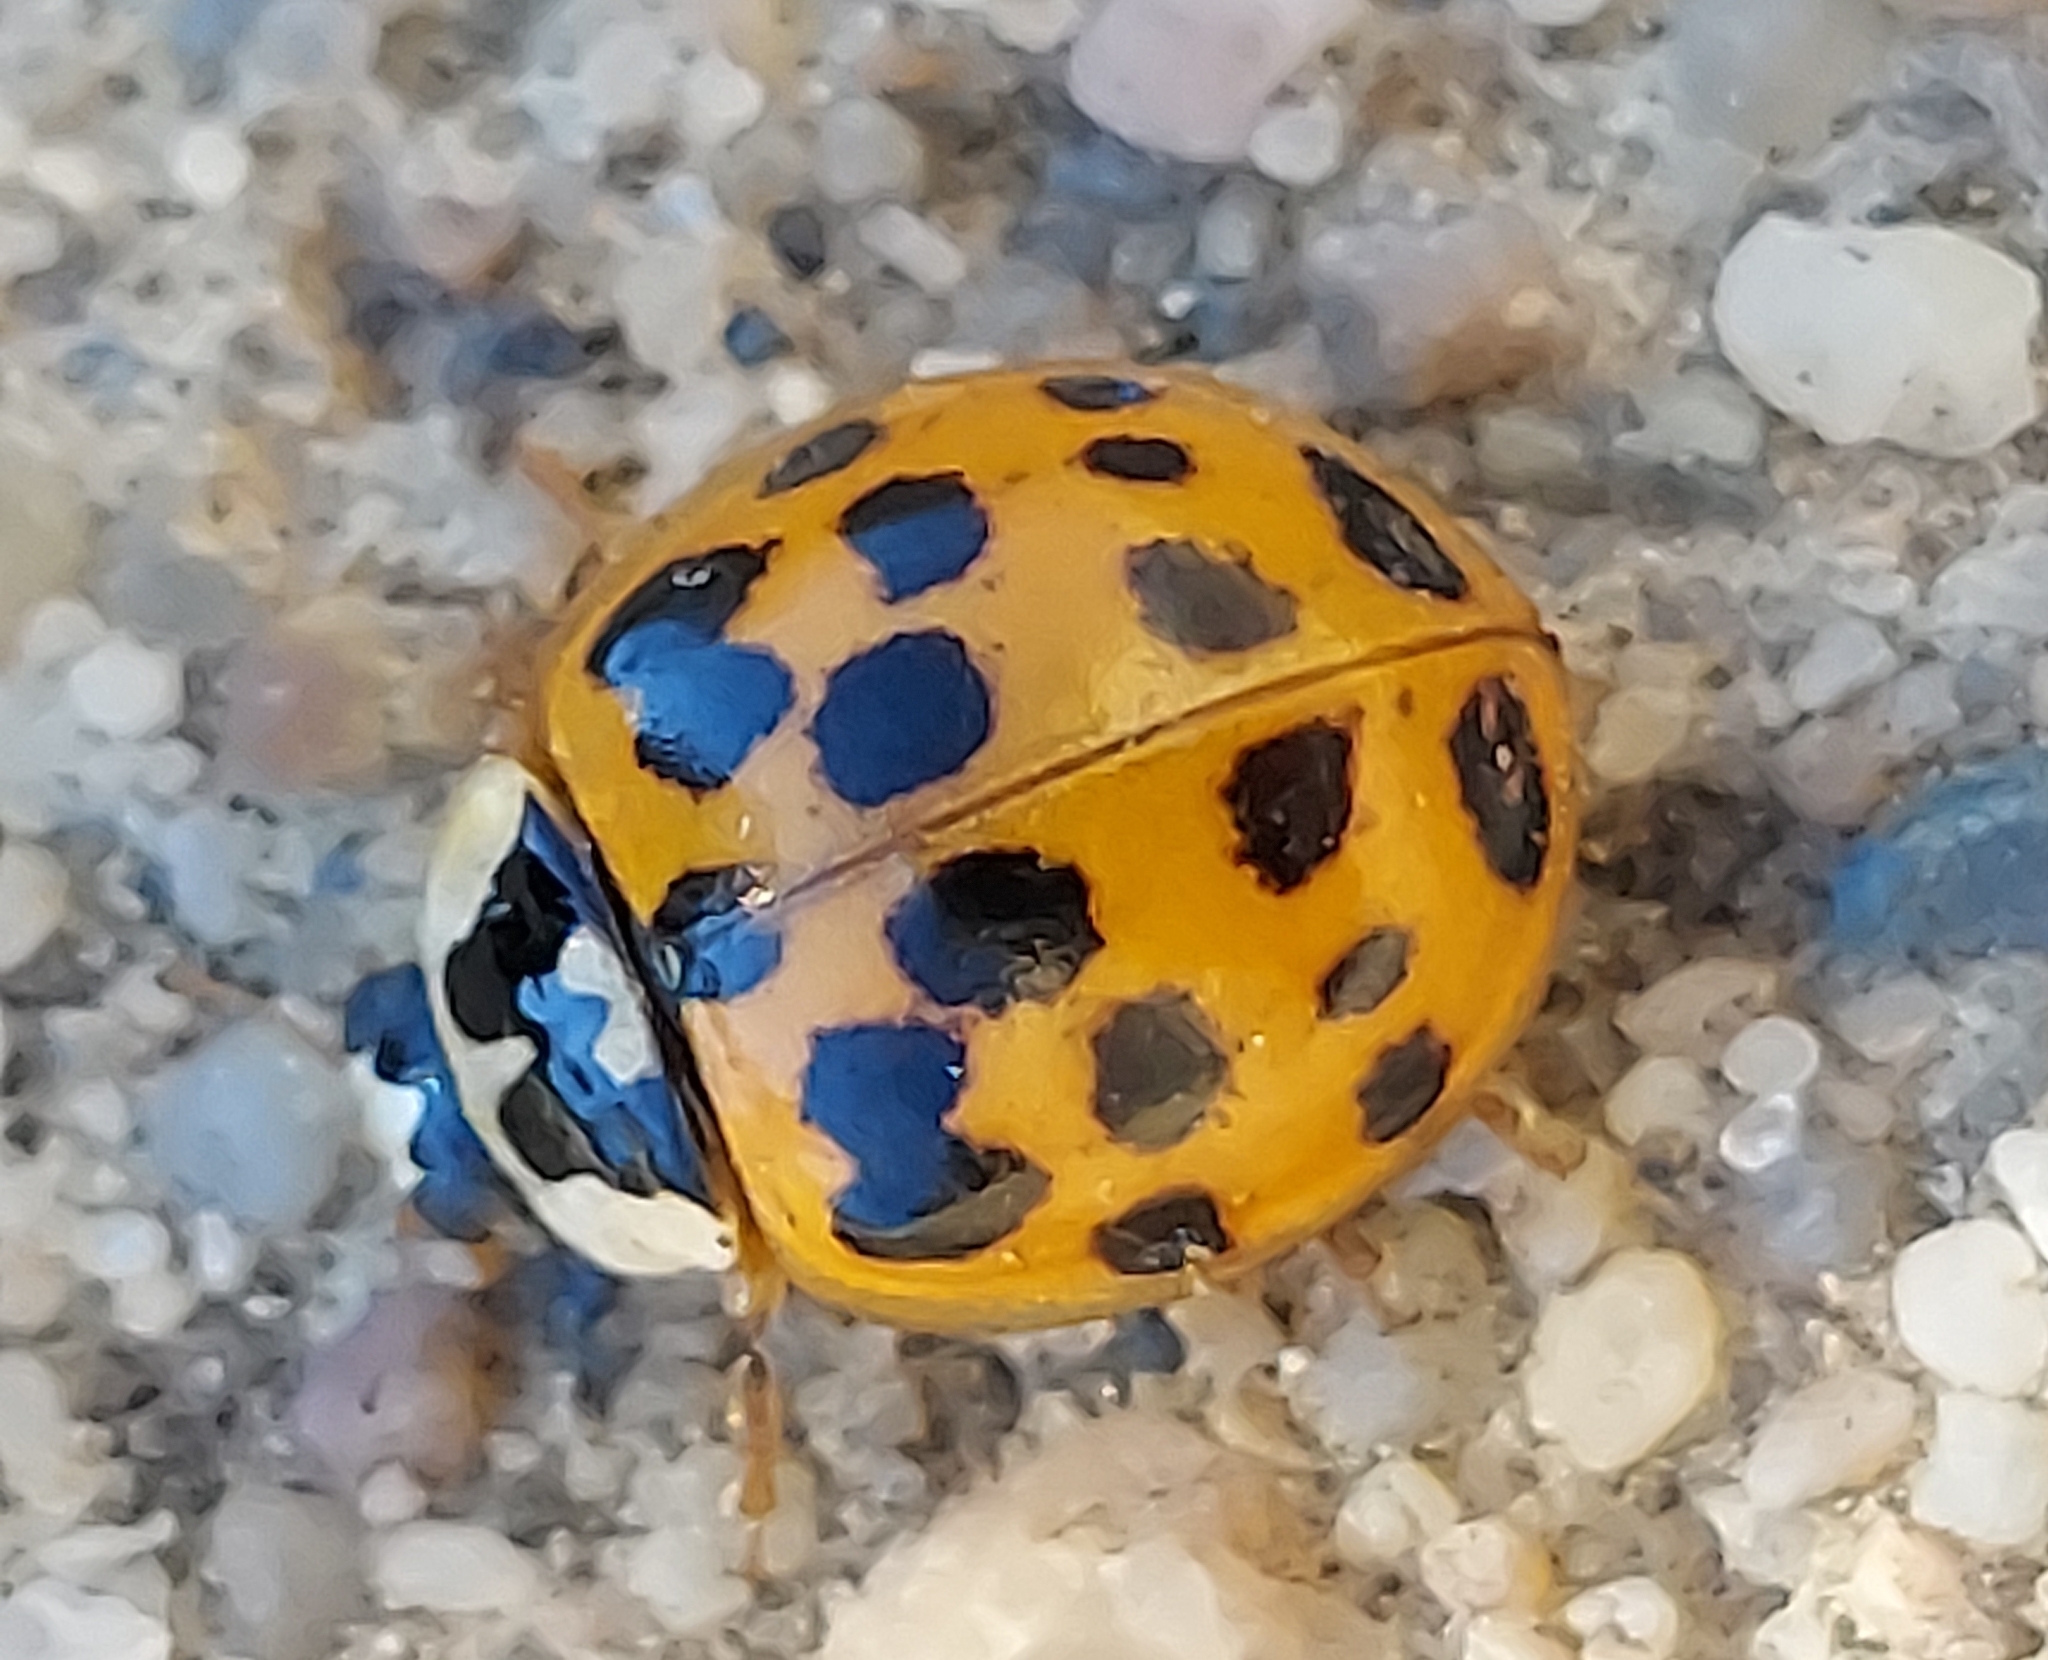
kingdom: Animalia
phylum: Arthropoda
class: Insecta
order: Coleoptera
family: Coccinellidae
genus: Harmonia
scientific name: Harmonia axyridis
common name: Harlequin ladybird
